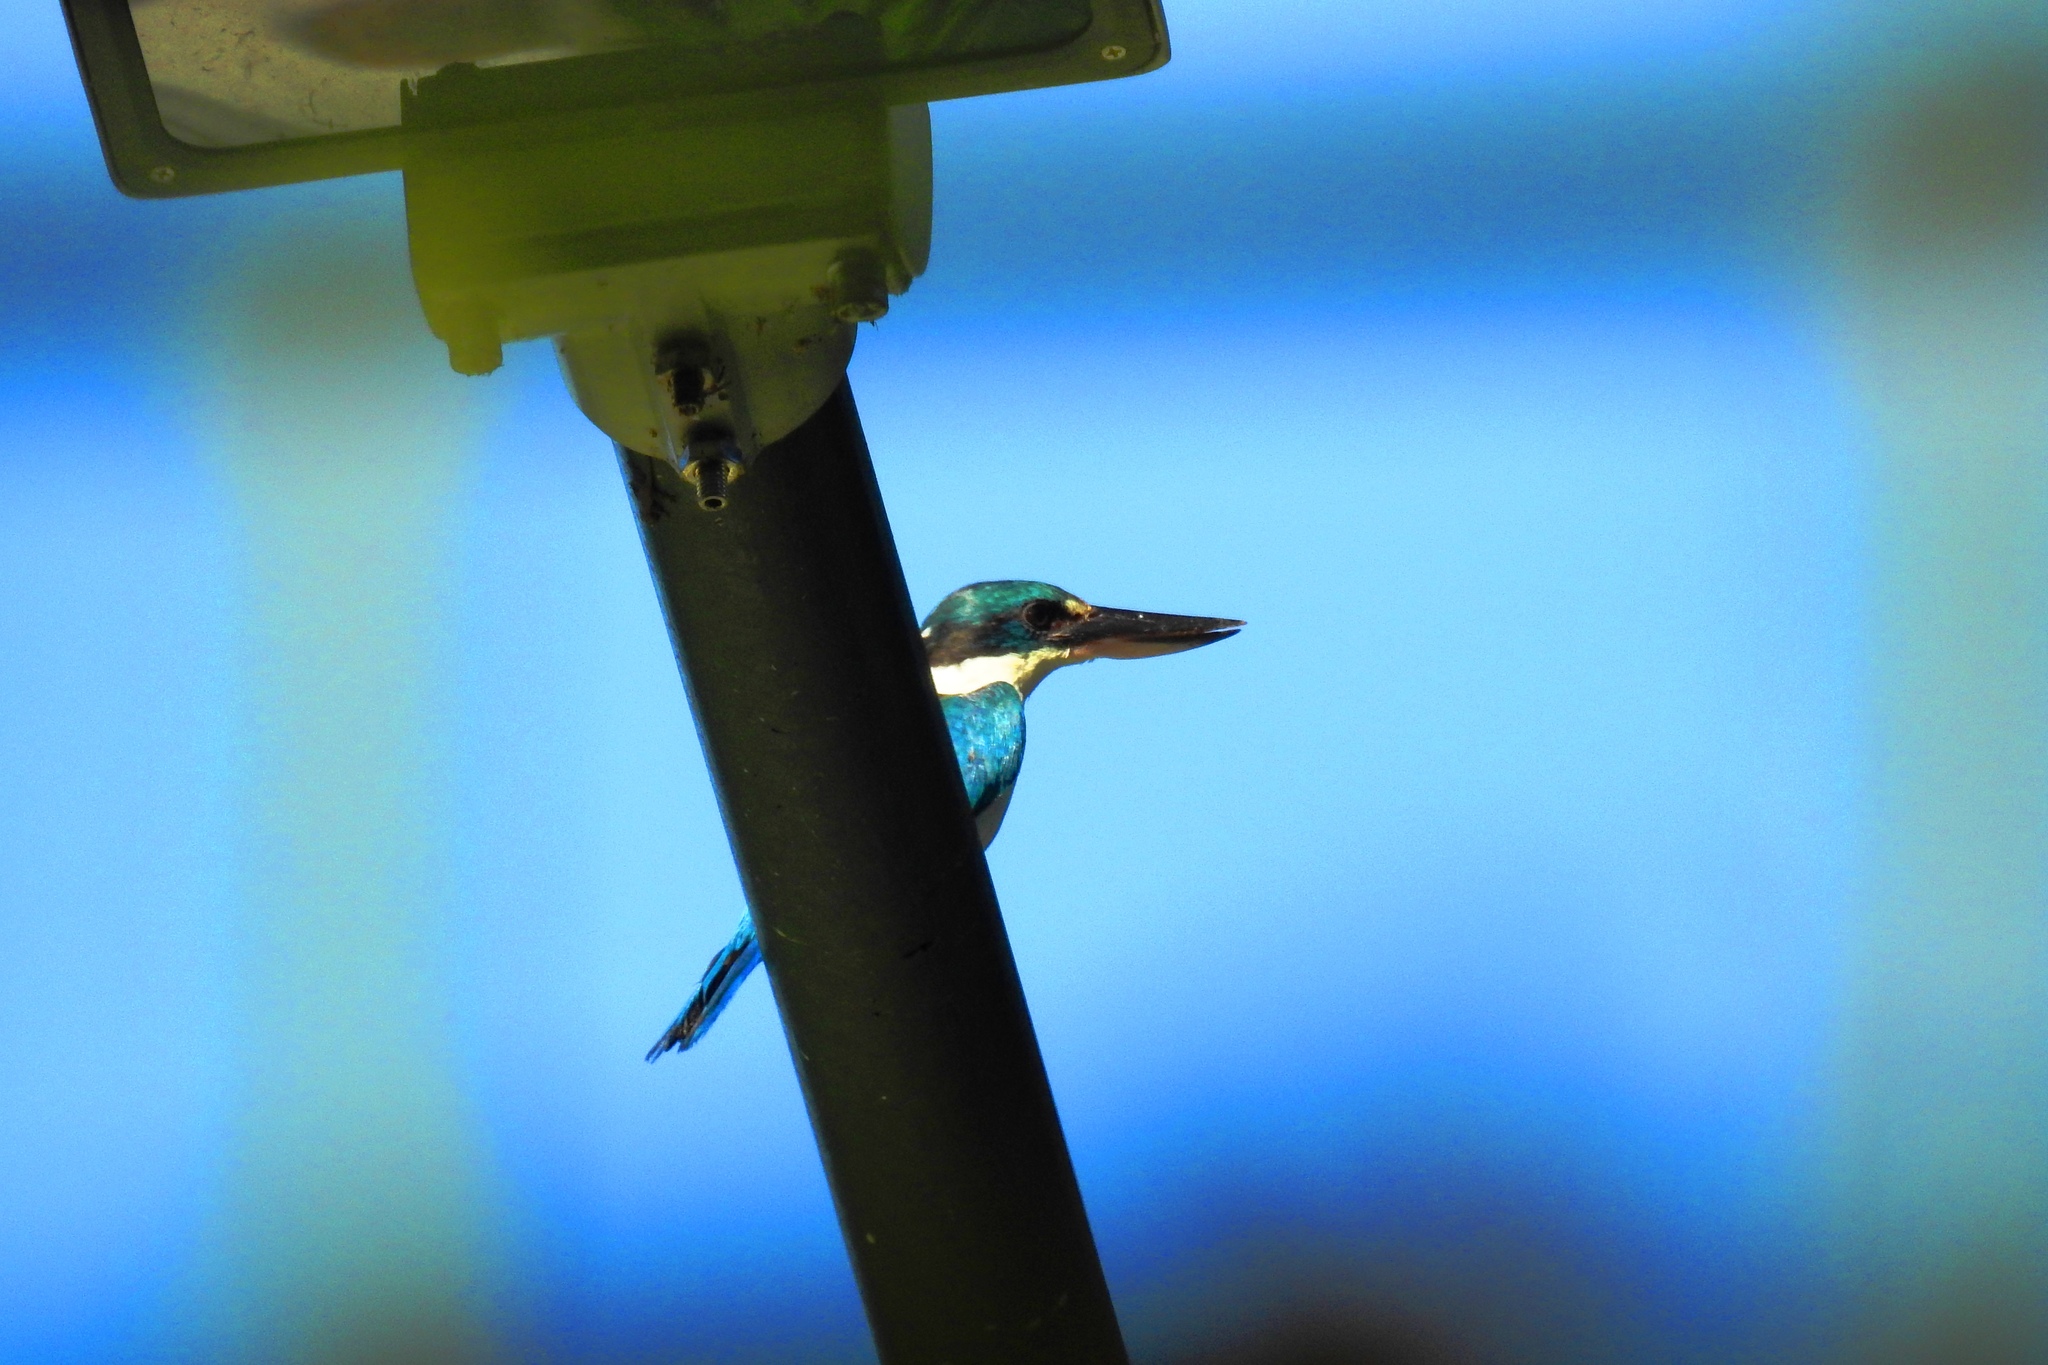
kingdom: Animalia
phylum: Chordata
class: Aves
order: Coraciiformes
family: Alcedinidae
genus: Todiramphus
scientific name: Todiramphus chloris
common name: Collared kingfisher
